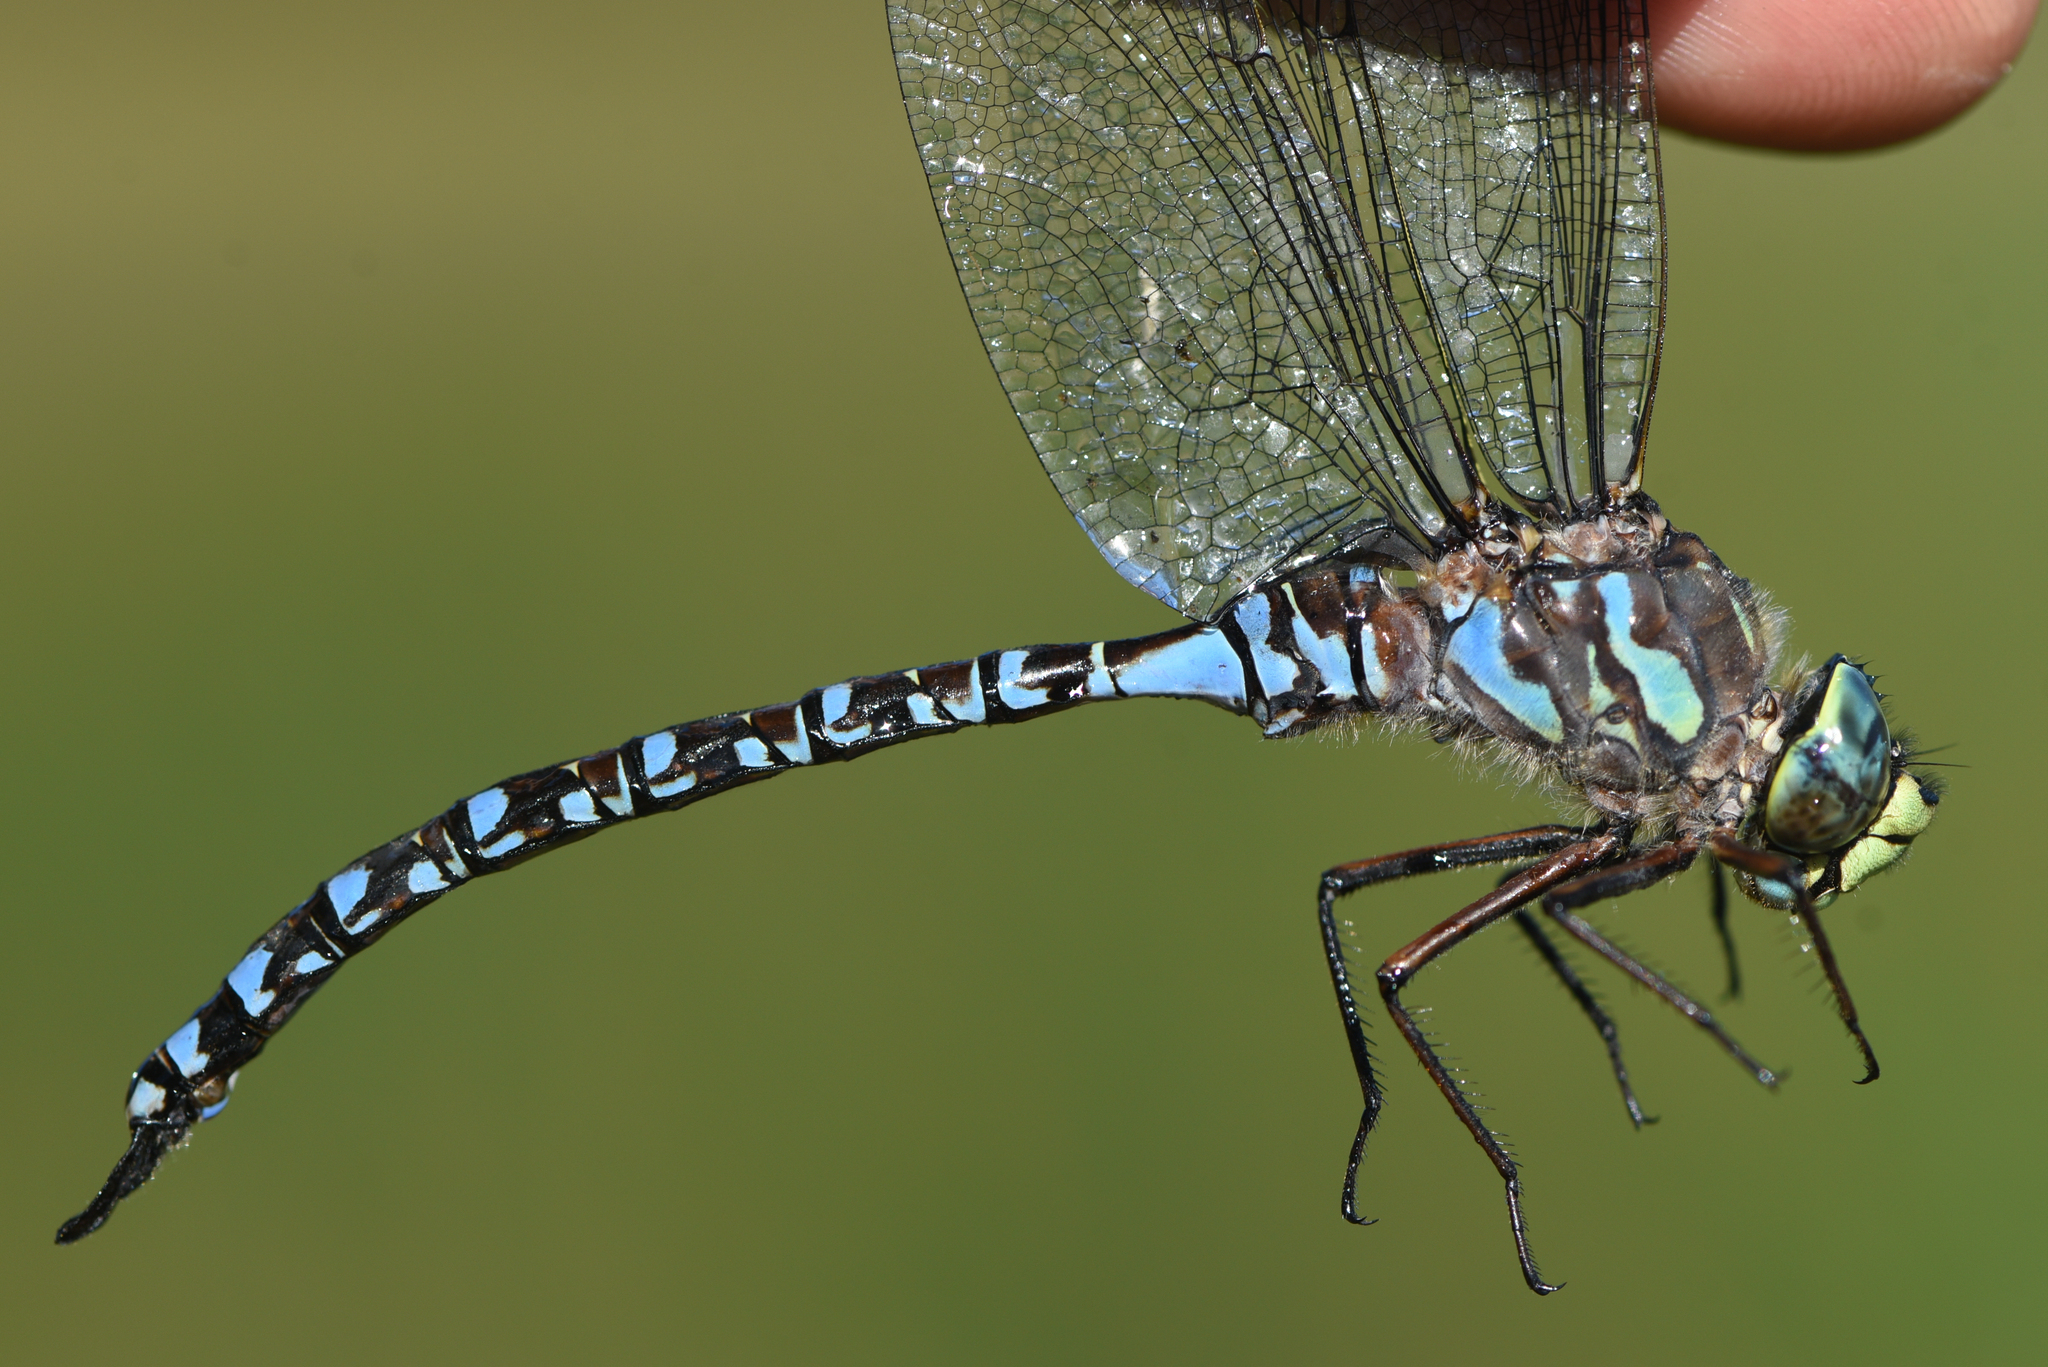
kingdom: Animalia
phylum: Arthropoda
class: Insecta
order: Odonata
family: Aeshnidae
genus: Aeshna
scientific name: Aeshna eremita
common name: Lake darner
